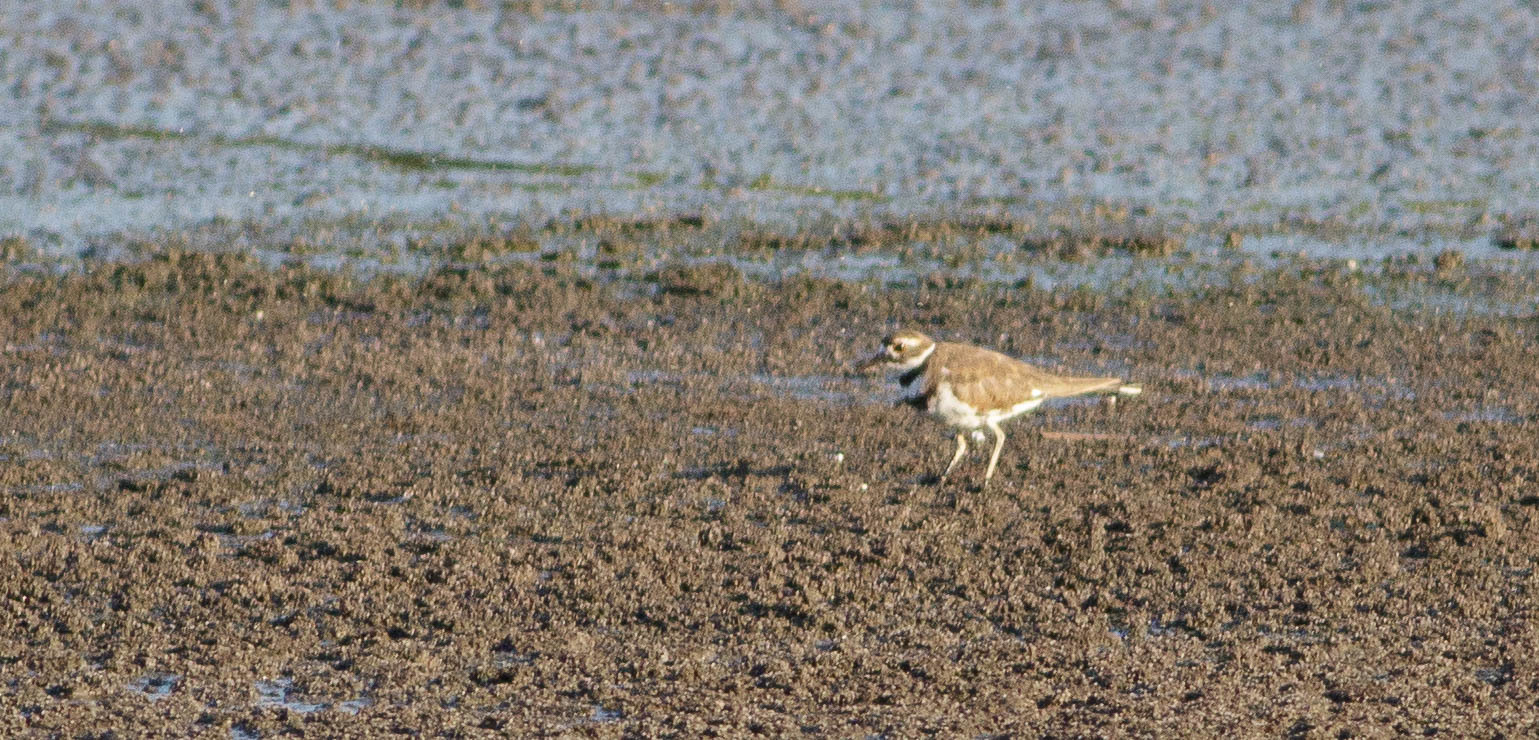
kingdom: Animalia
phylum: Chordata
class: Aves
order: Charadriiformes
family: Charadriidae
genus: Charadrius
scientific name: Charadrius vociferus
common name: Killdeer
